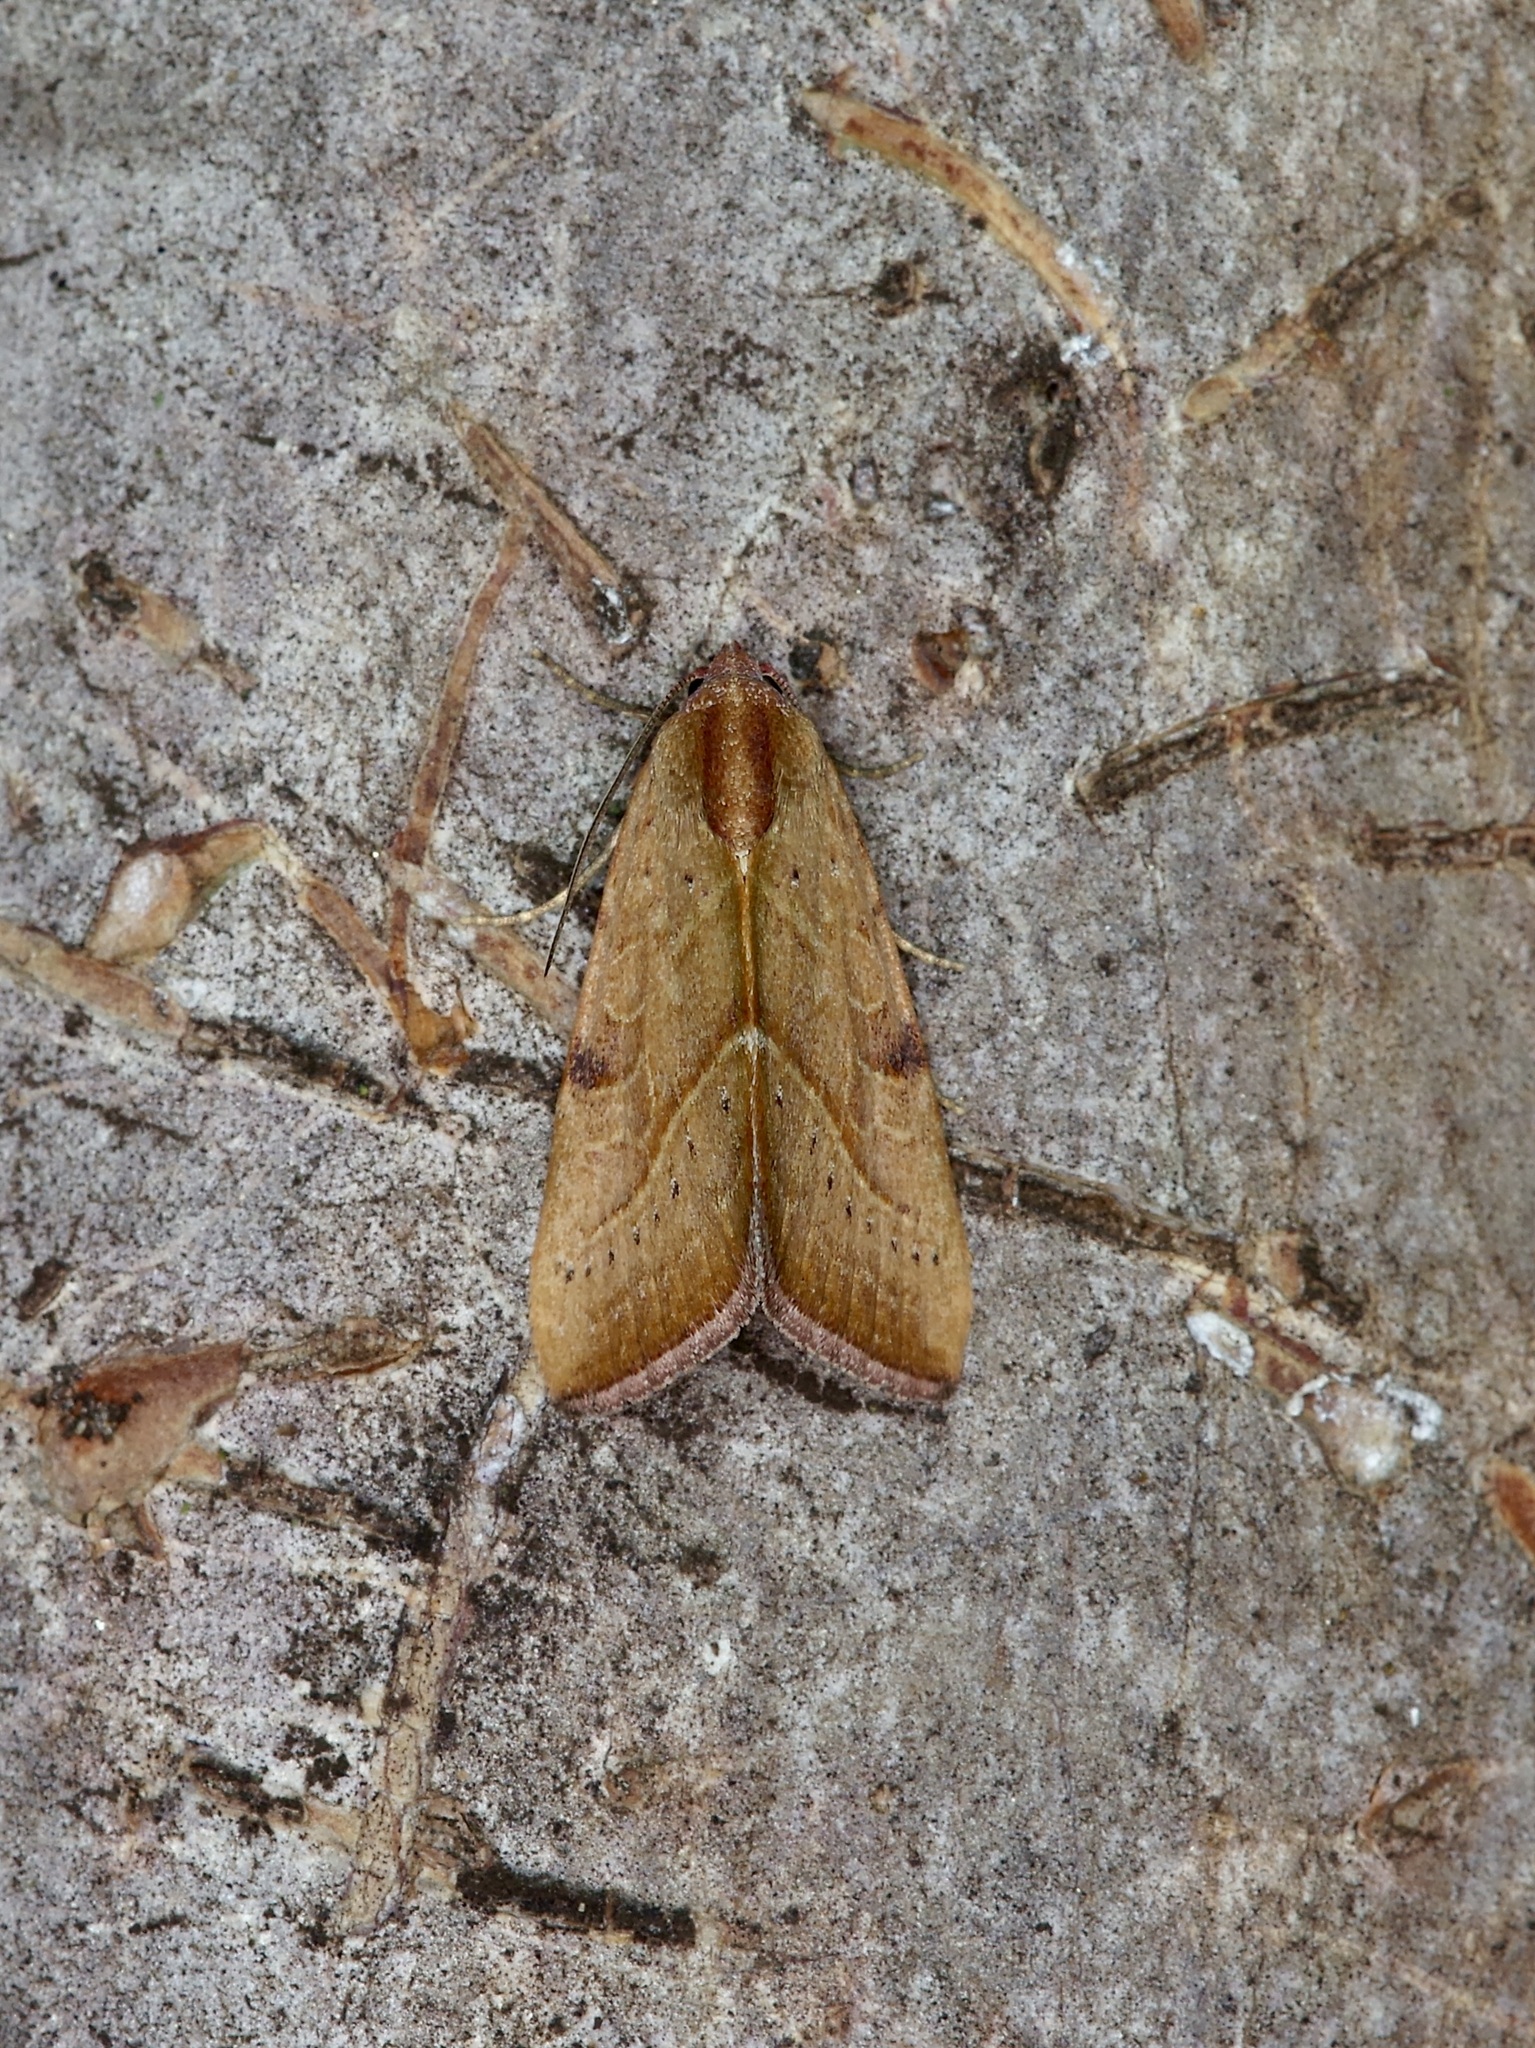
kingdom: Animalia
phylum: Arthropoda
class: Insecta
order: Lepidoptera
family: Noctuidae
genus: Galgula
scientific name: Galgula partita
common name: Wedgeling
